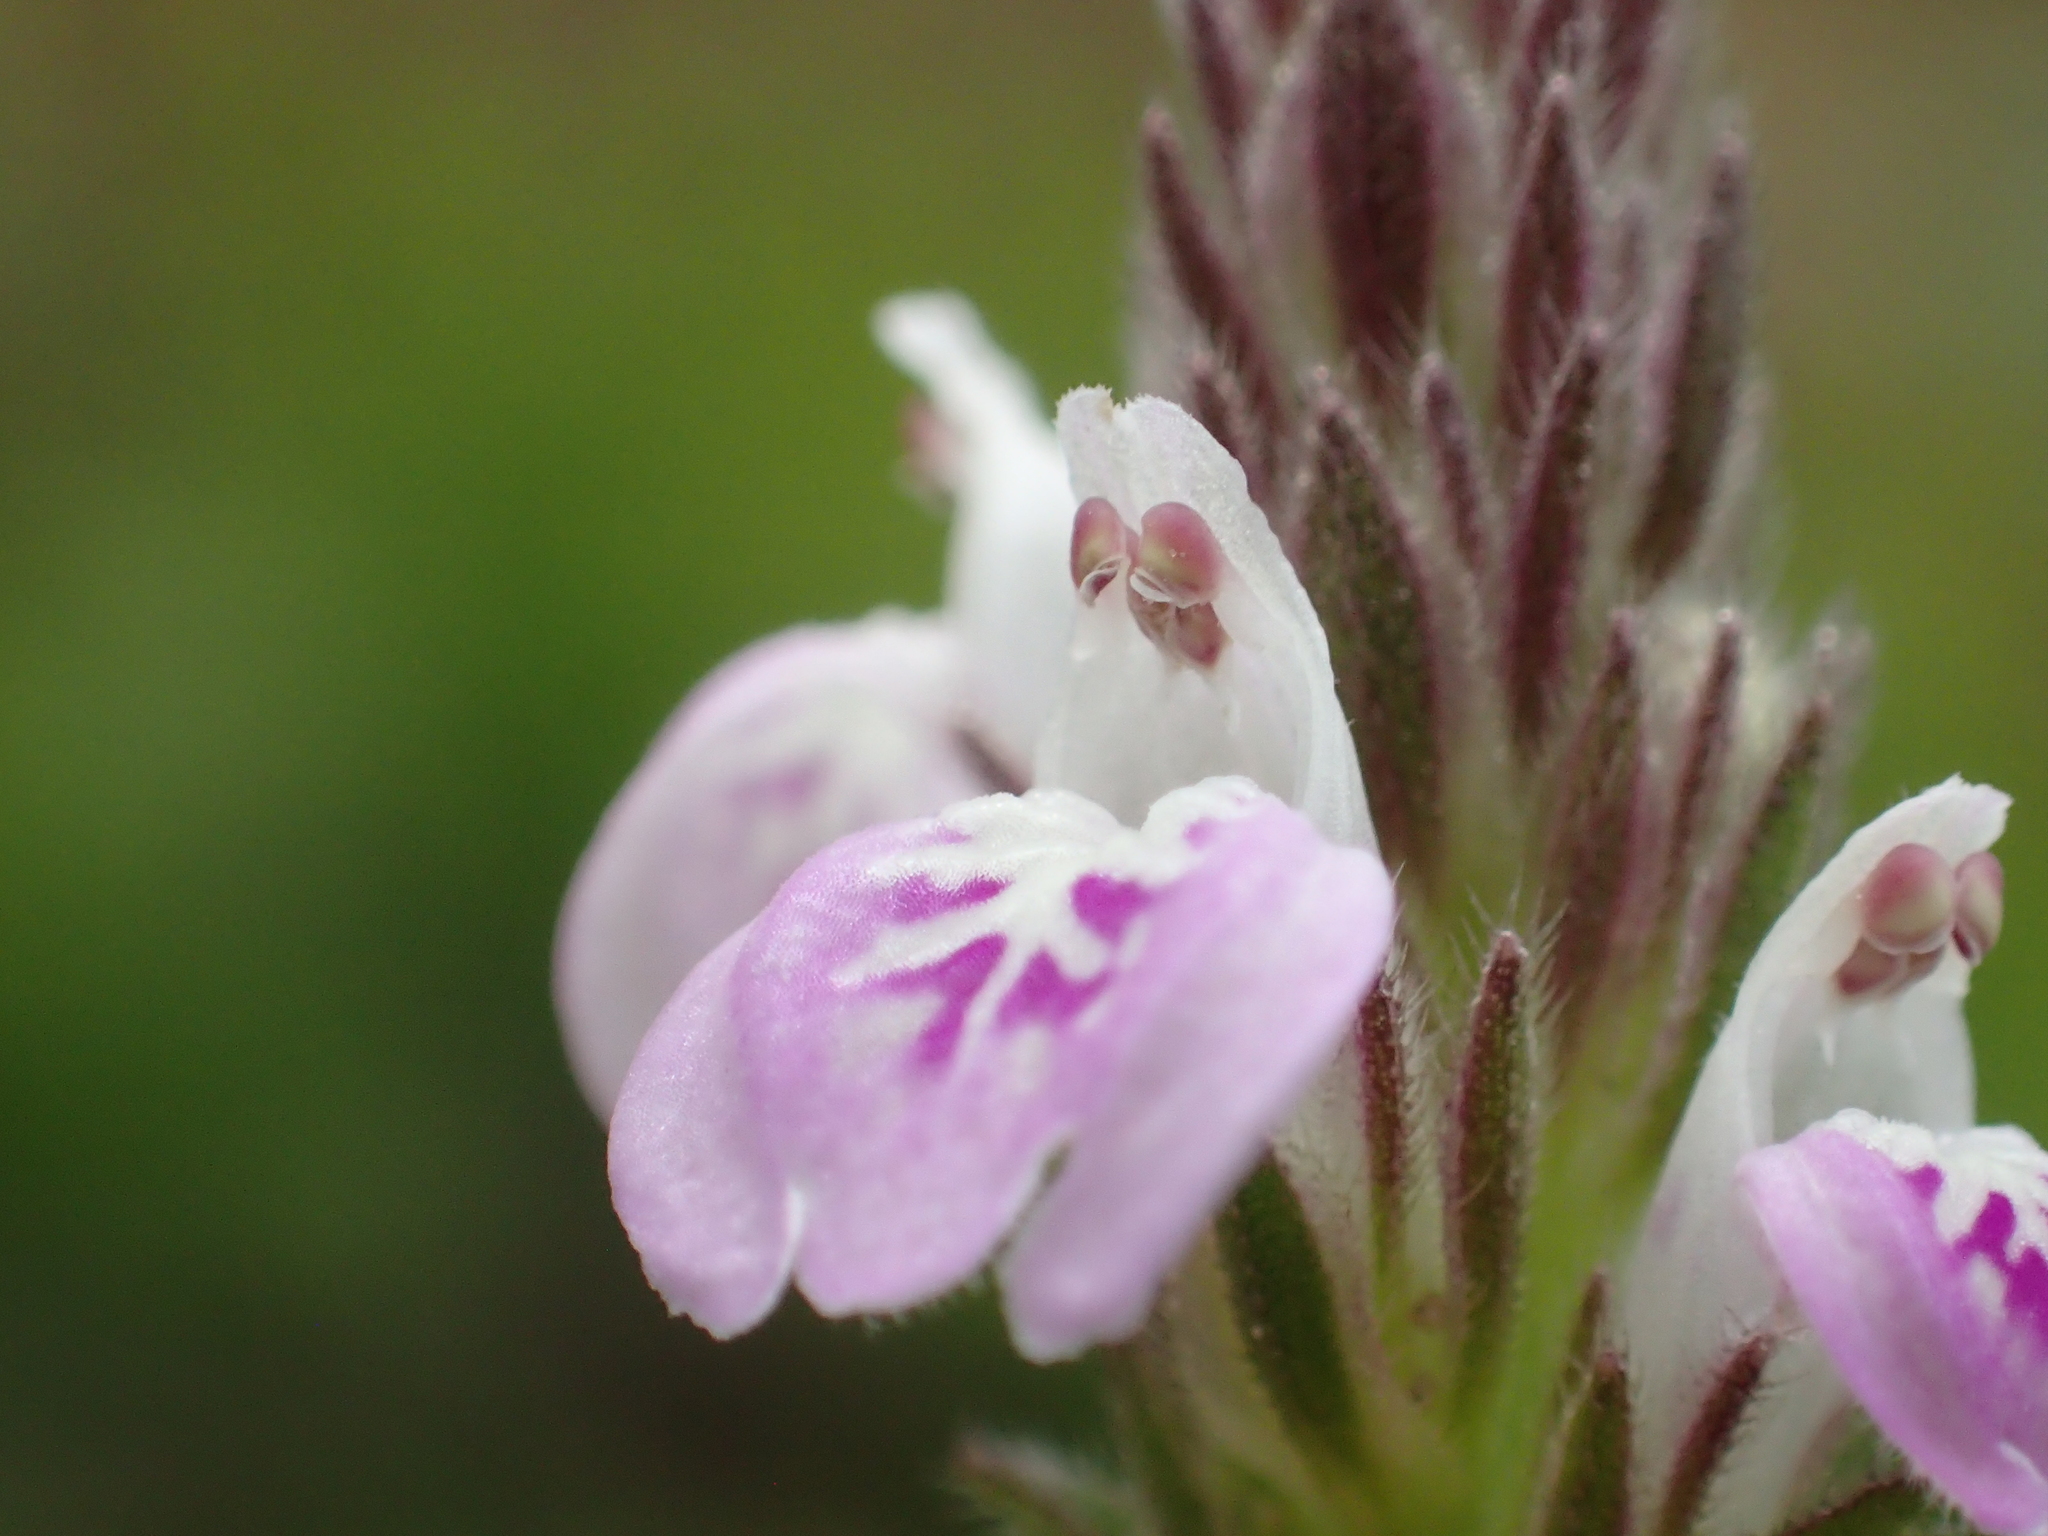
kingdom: Plantae
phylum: Tracheophyta
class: Magnoliopsida
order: Lamiales
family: Acanthaceae
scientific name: Acanthaceae
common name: Acanthaceae
